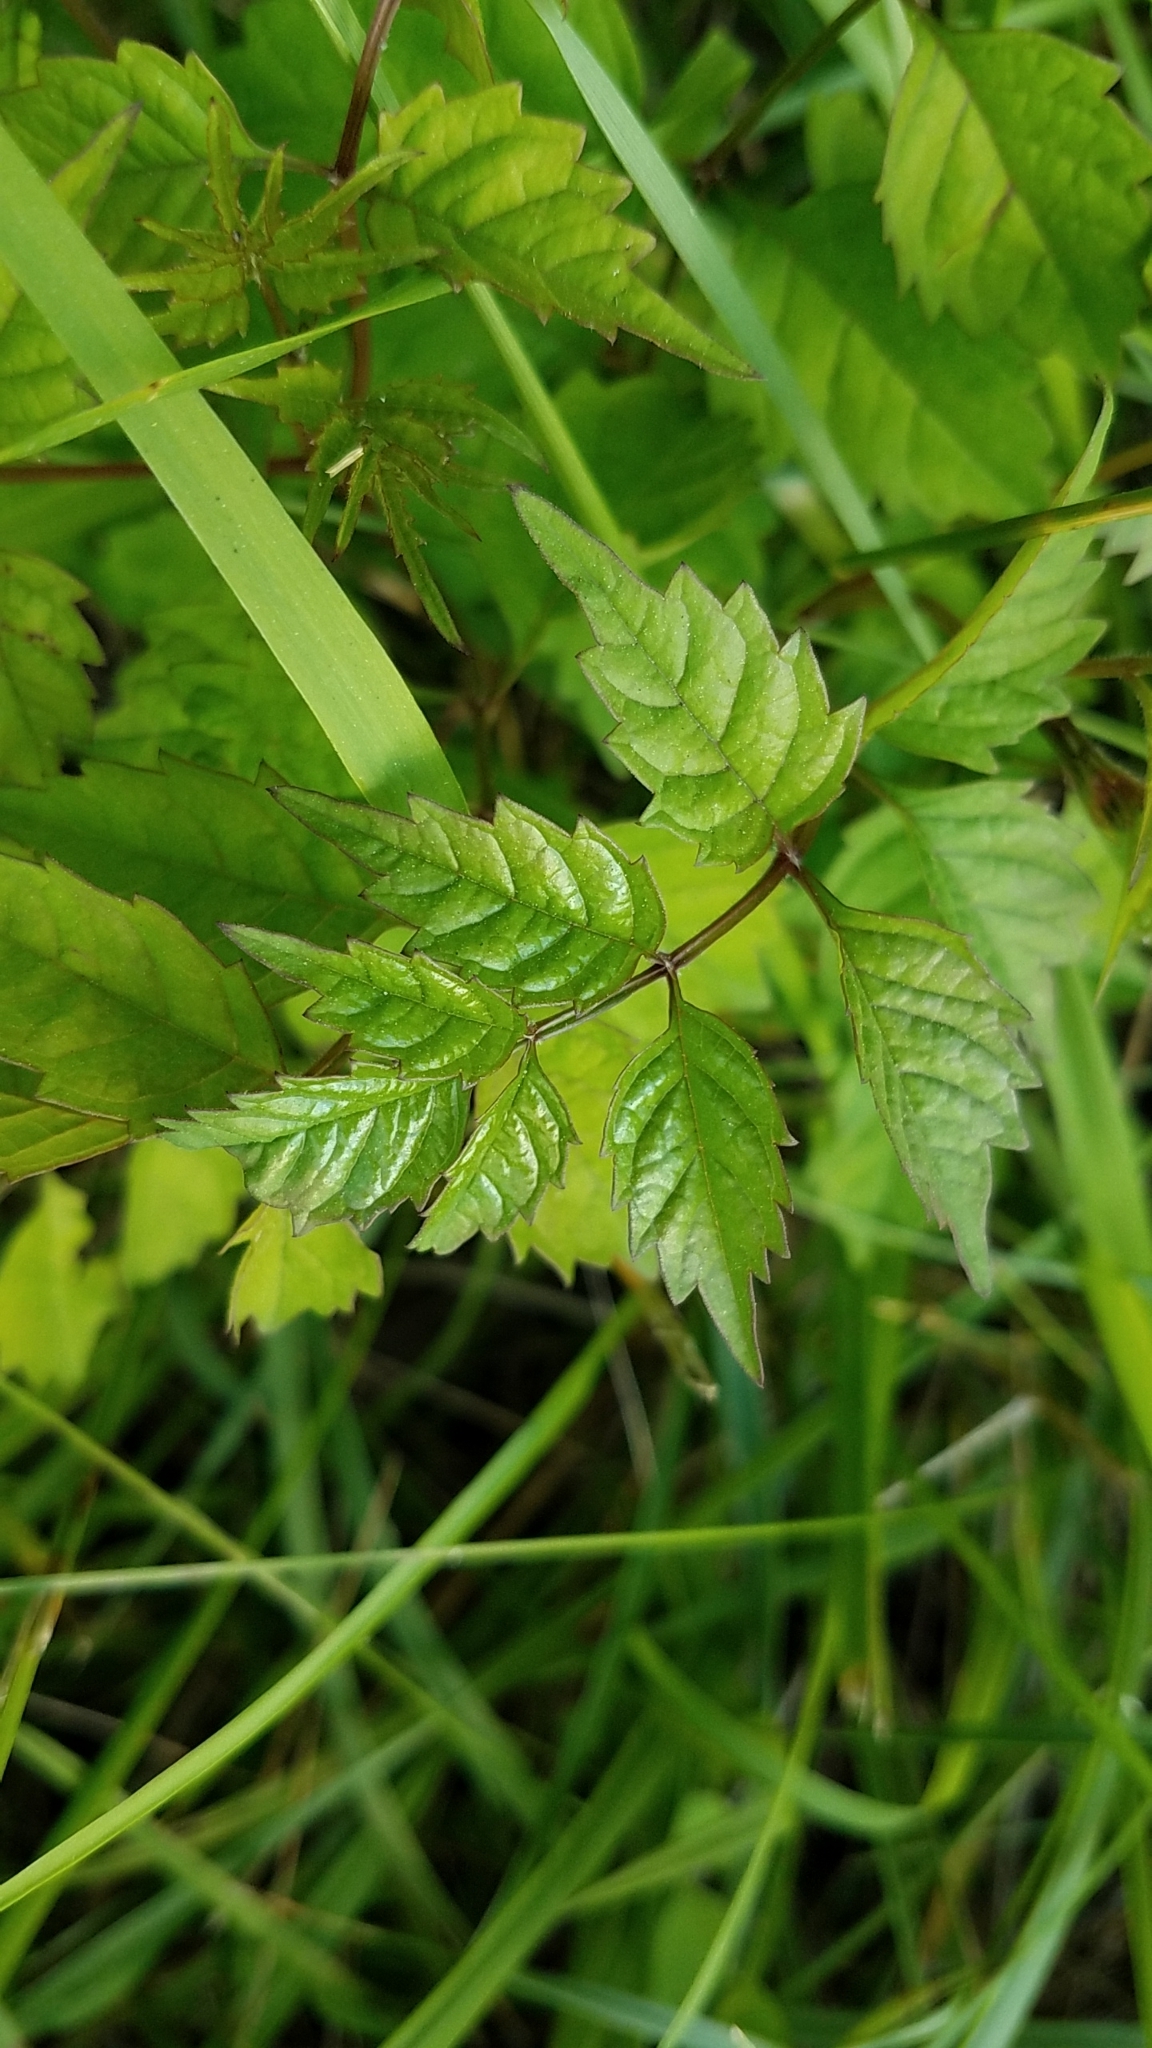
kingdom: Plantae
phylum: Tracheophyta
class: Magnoliopsida
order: Lamiales
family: Bignoniaceae
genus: Campsis
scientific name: Campsis radicans
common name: Trumpet-creeper
